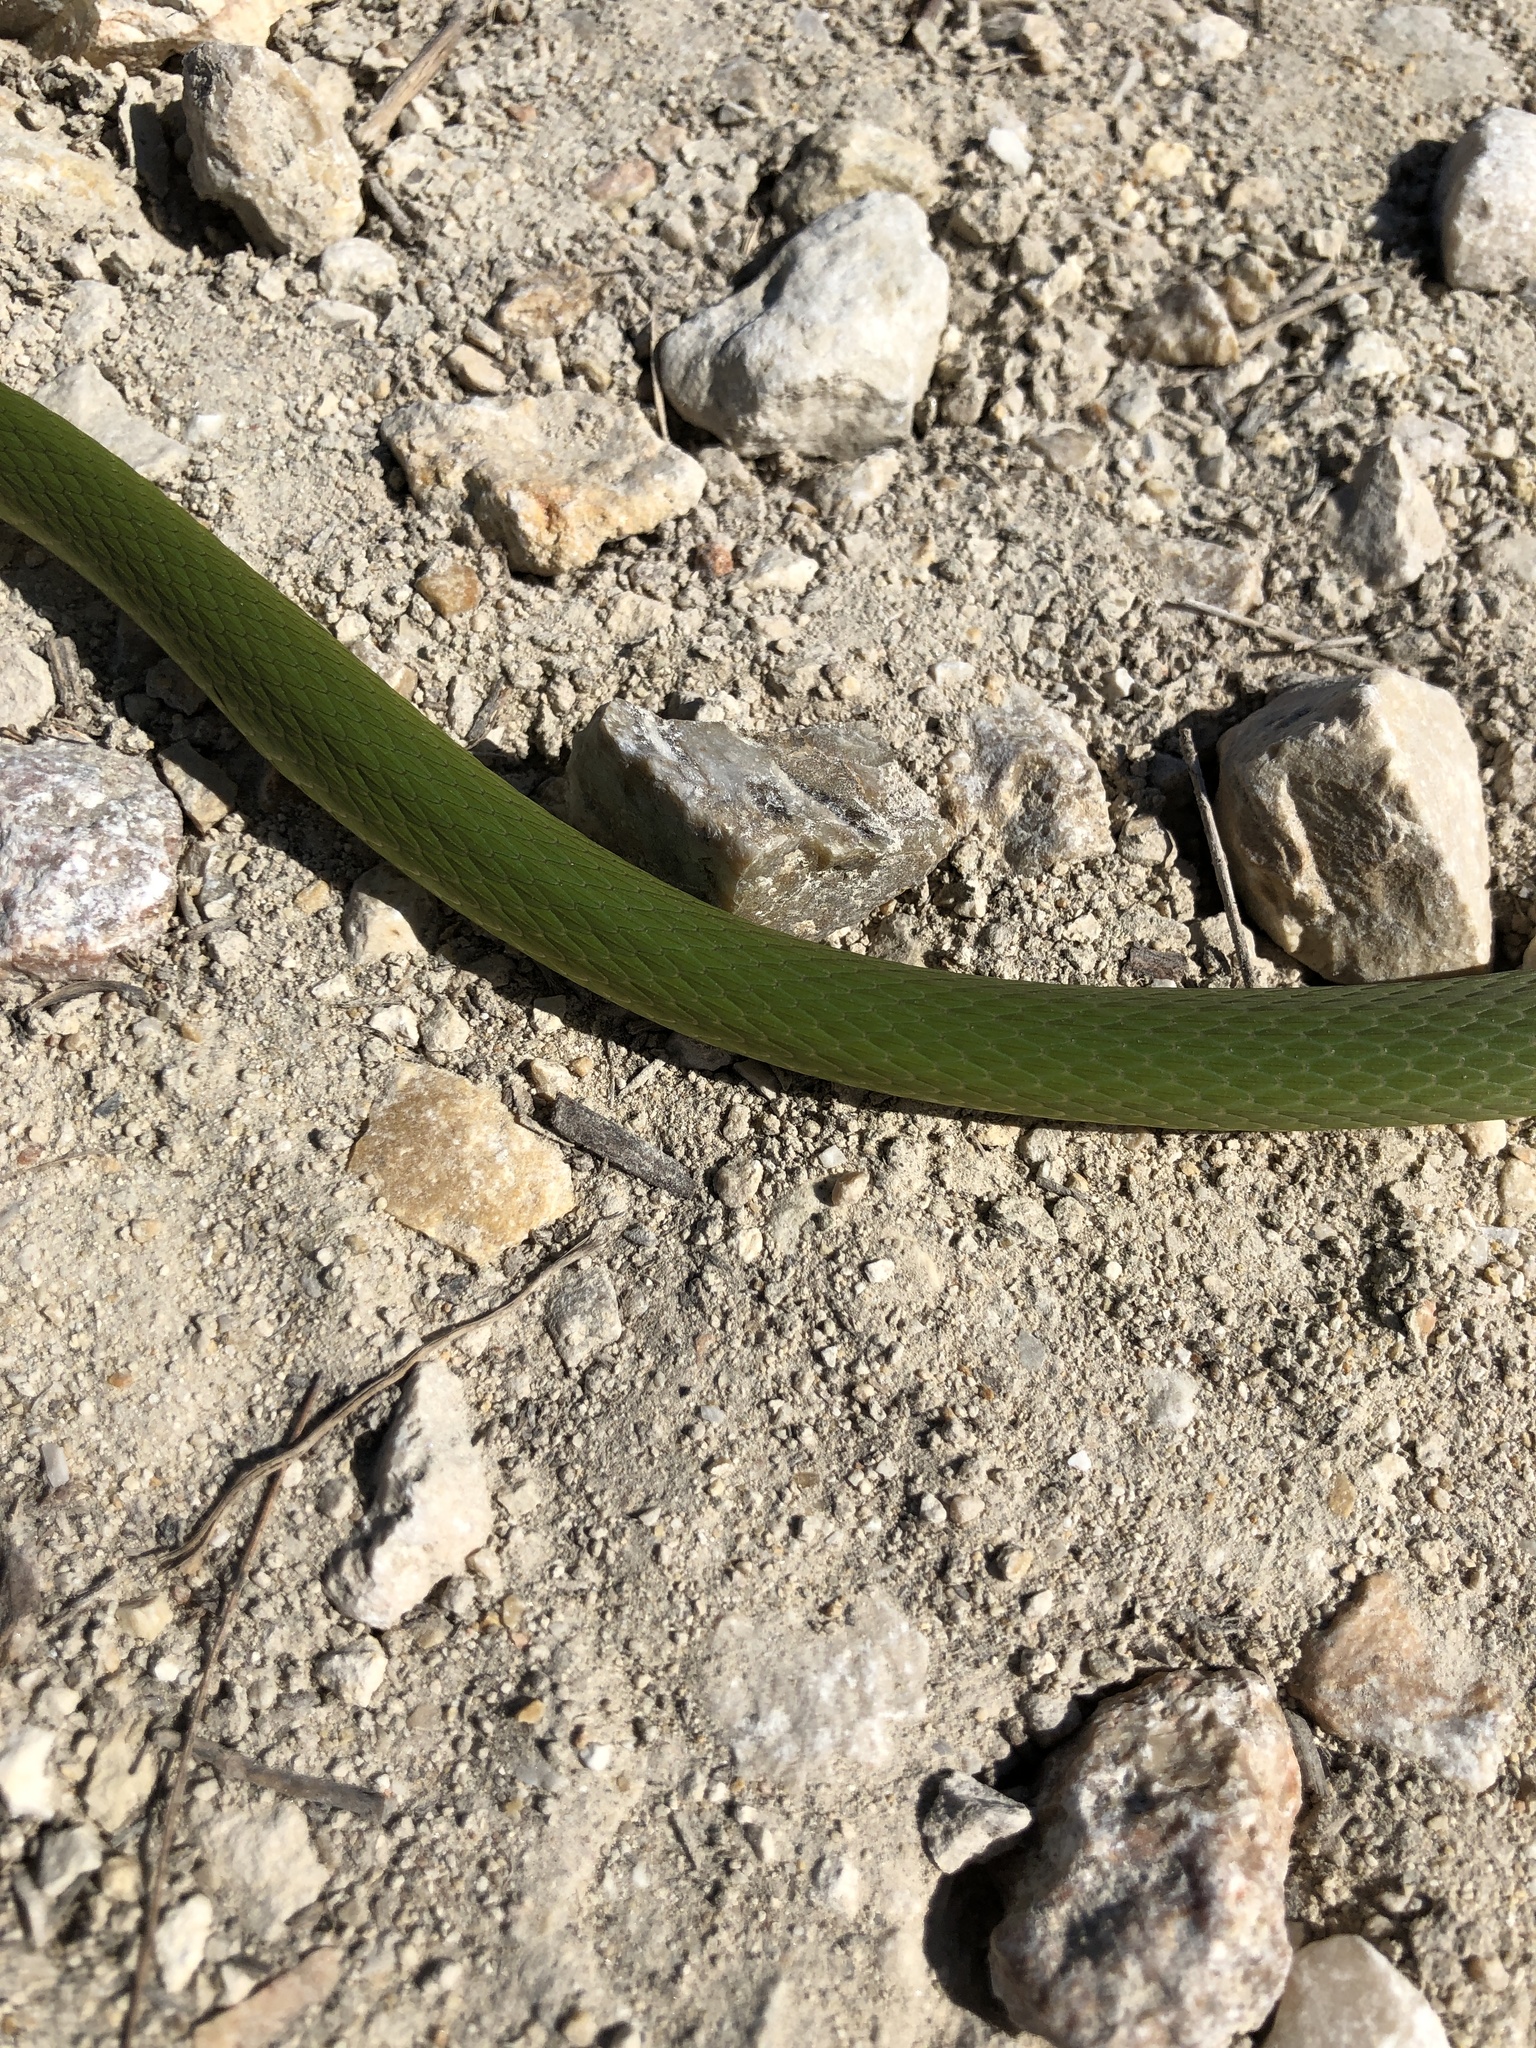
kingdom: Animalia
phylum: Chordata
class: Squamata
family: Colubridae
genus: Opheodrys
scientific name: Opheodrys aestivus
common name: Rough greensnake
